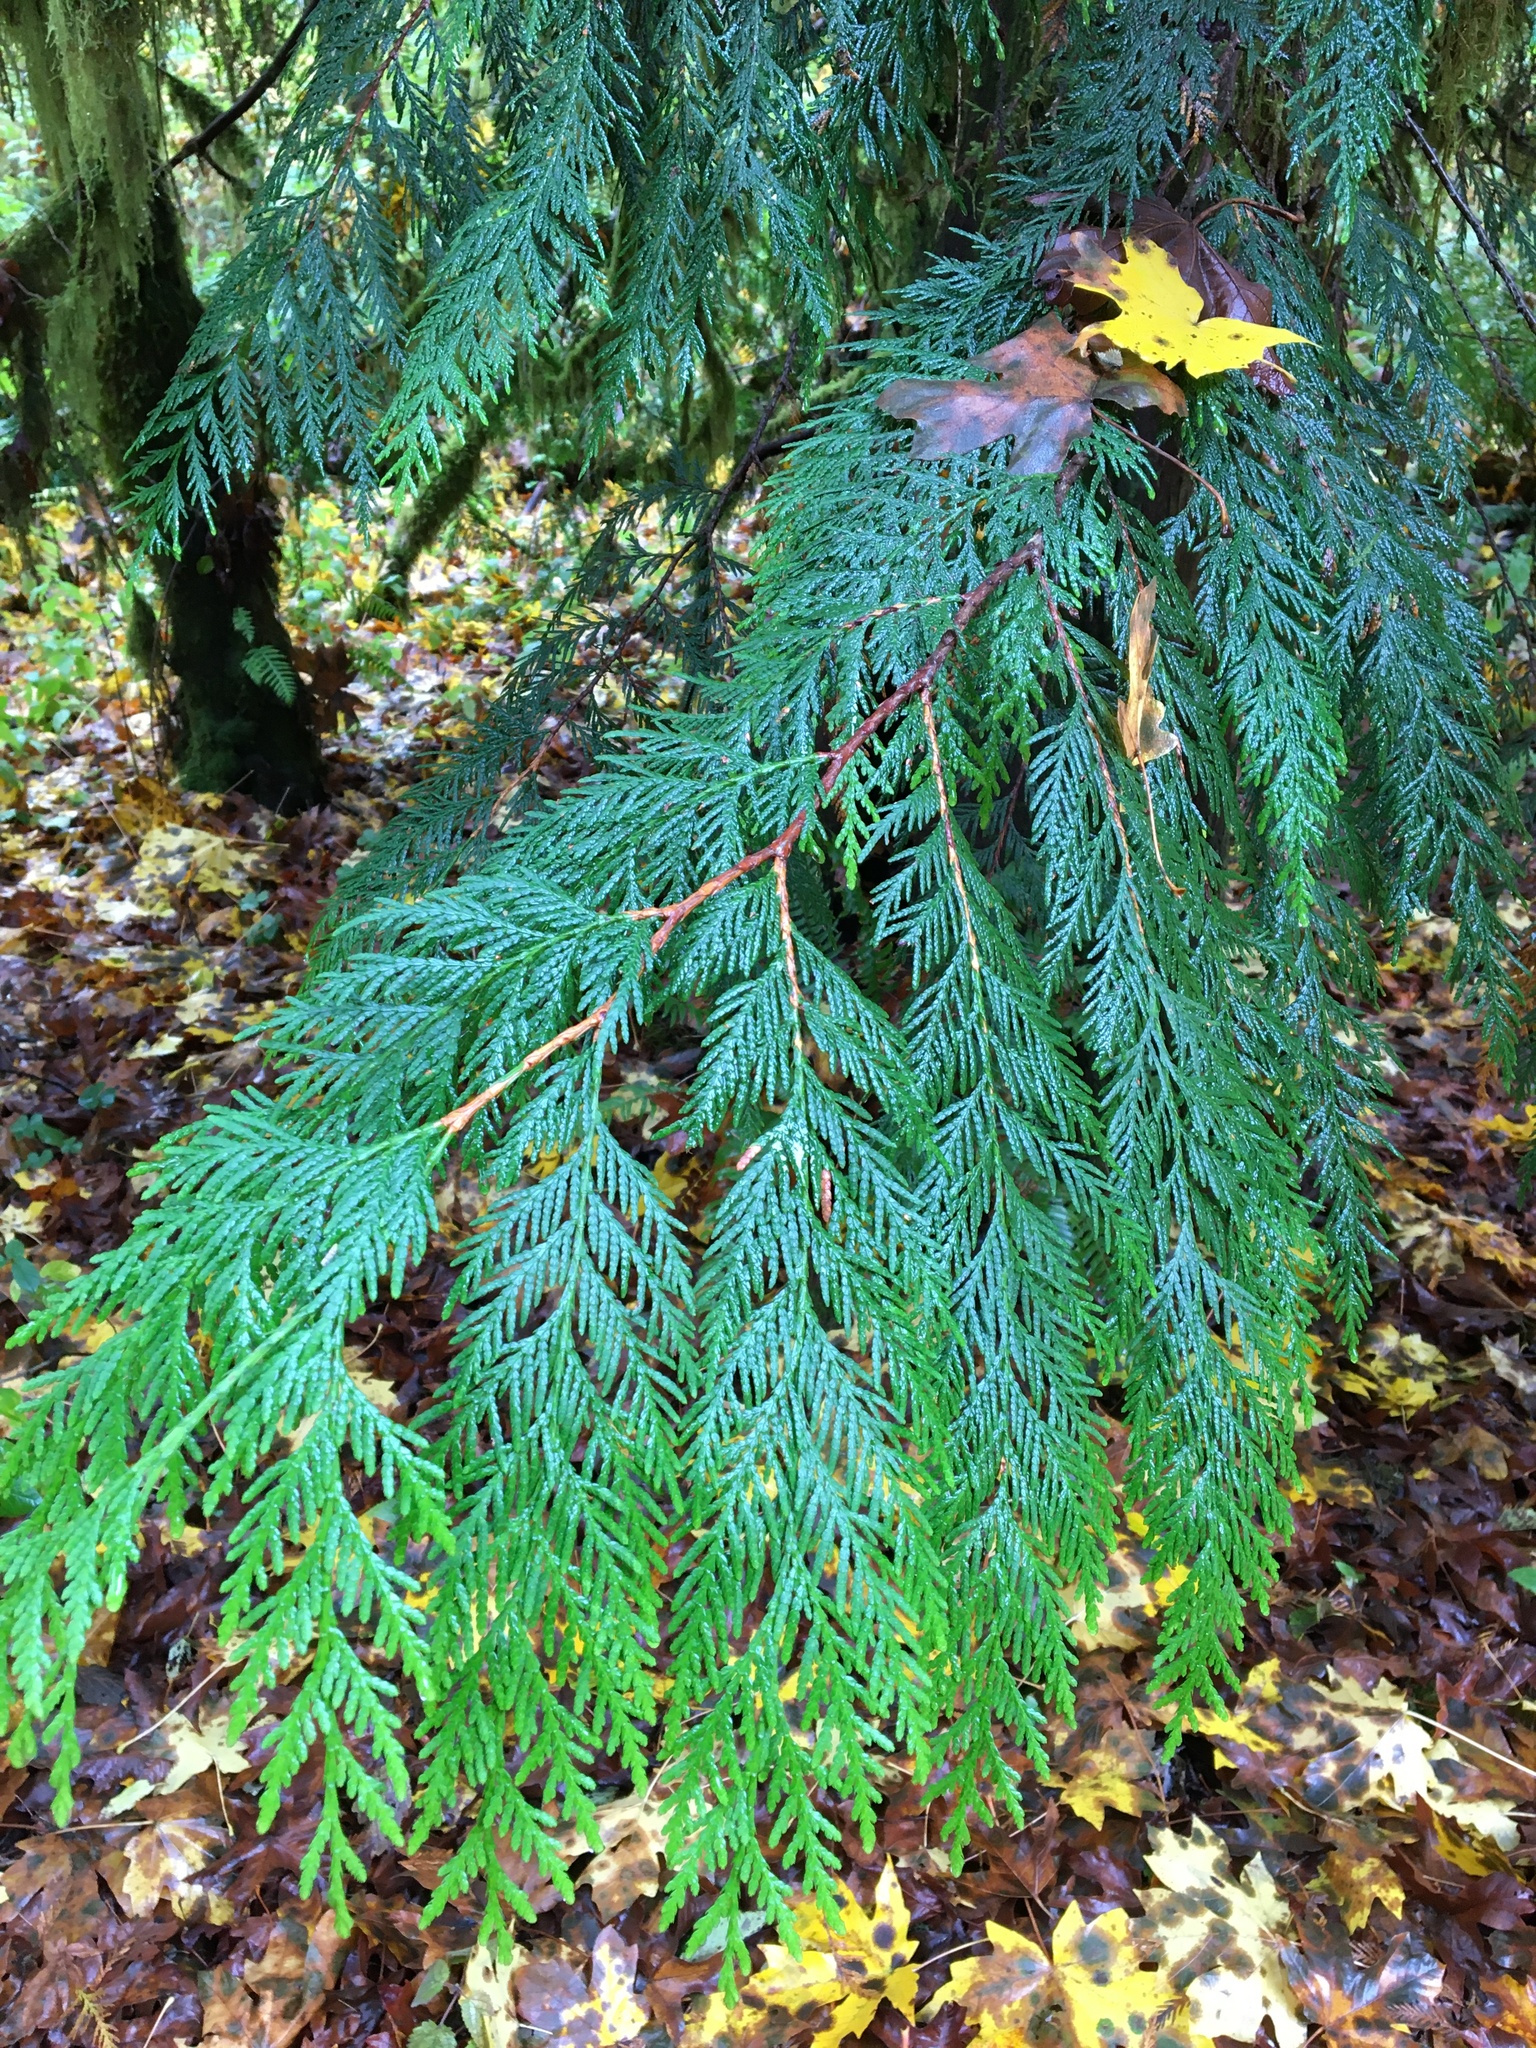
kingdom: Plantae
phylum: Tracheophyta
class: Pinopsida
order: Pinales
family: Cupressaceae
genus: Thuja
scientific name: Thuja plicata
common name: Western red-cedar
